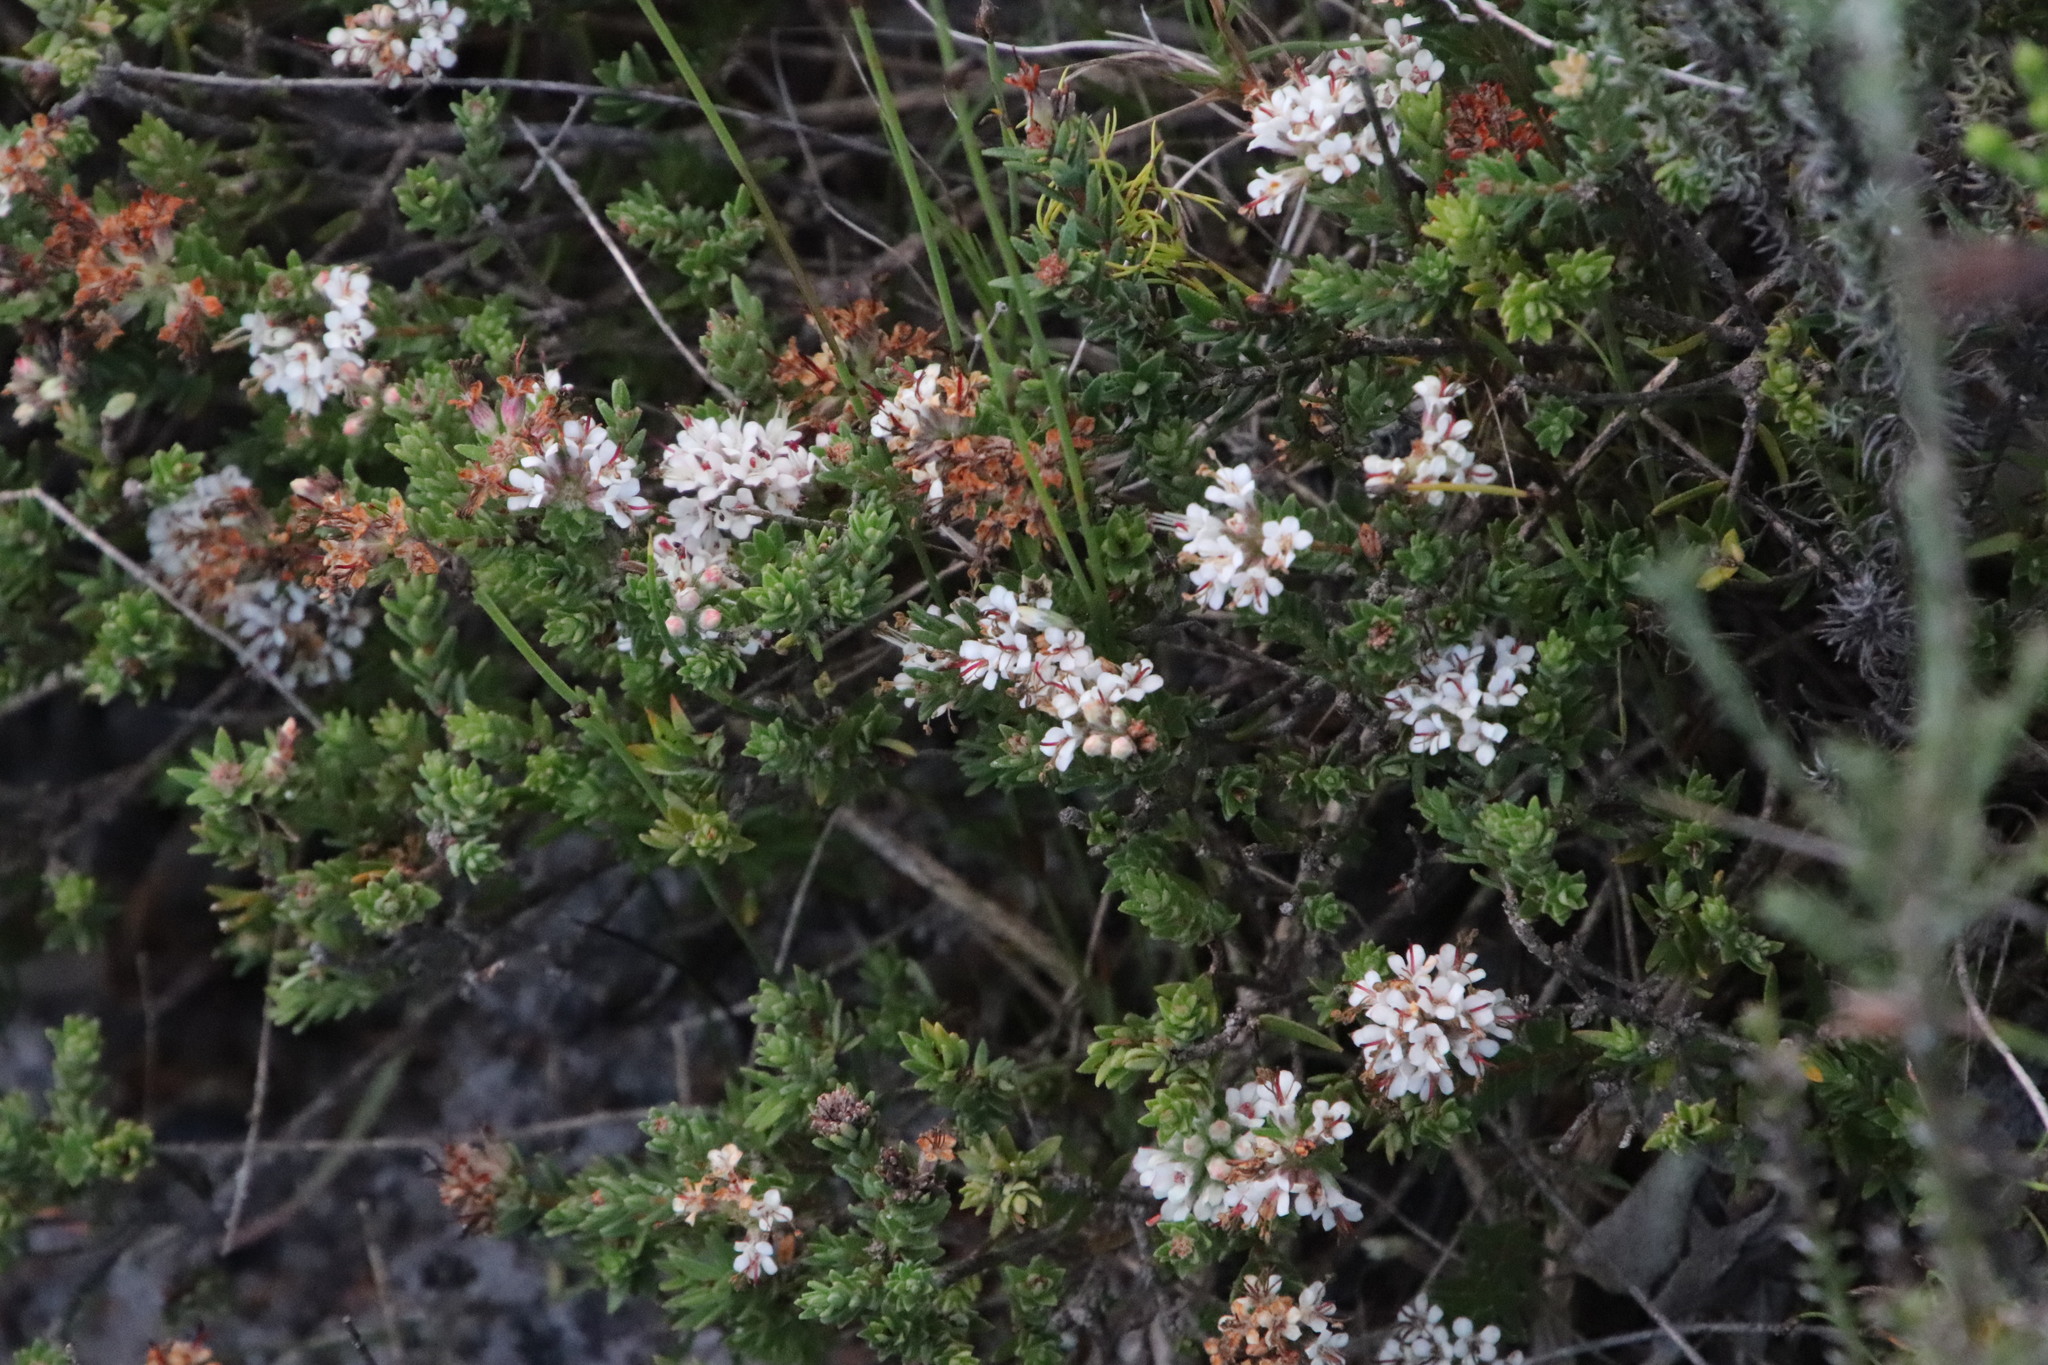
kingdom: Plantae
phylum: Tracheophyta
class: Magnoliopsida
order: Sapindales
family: Rutaceae
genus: Macrostylis
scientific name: Macrostylis villosa
